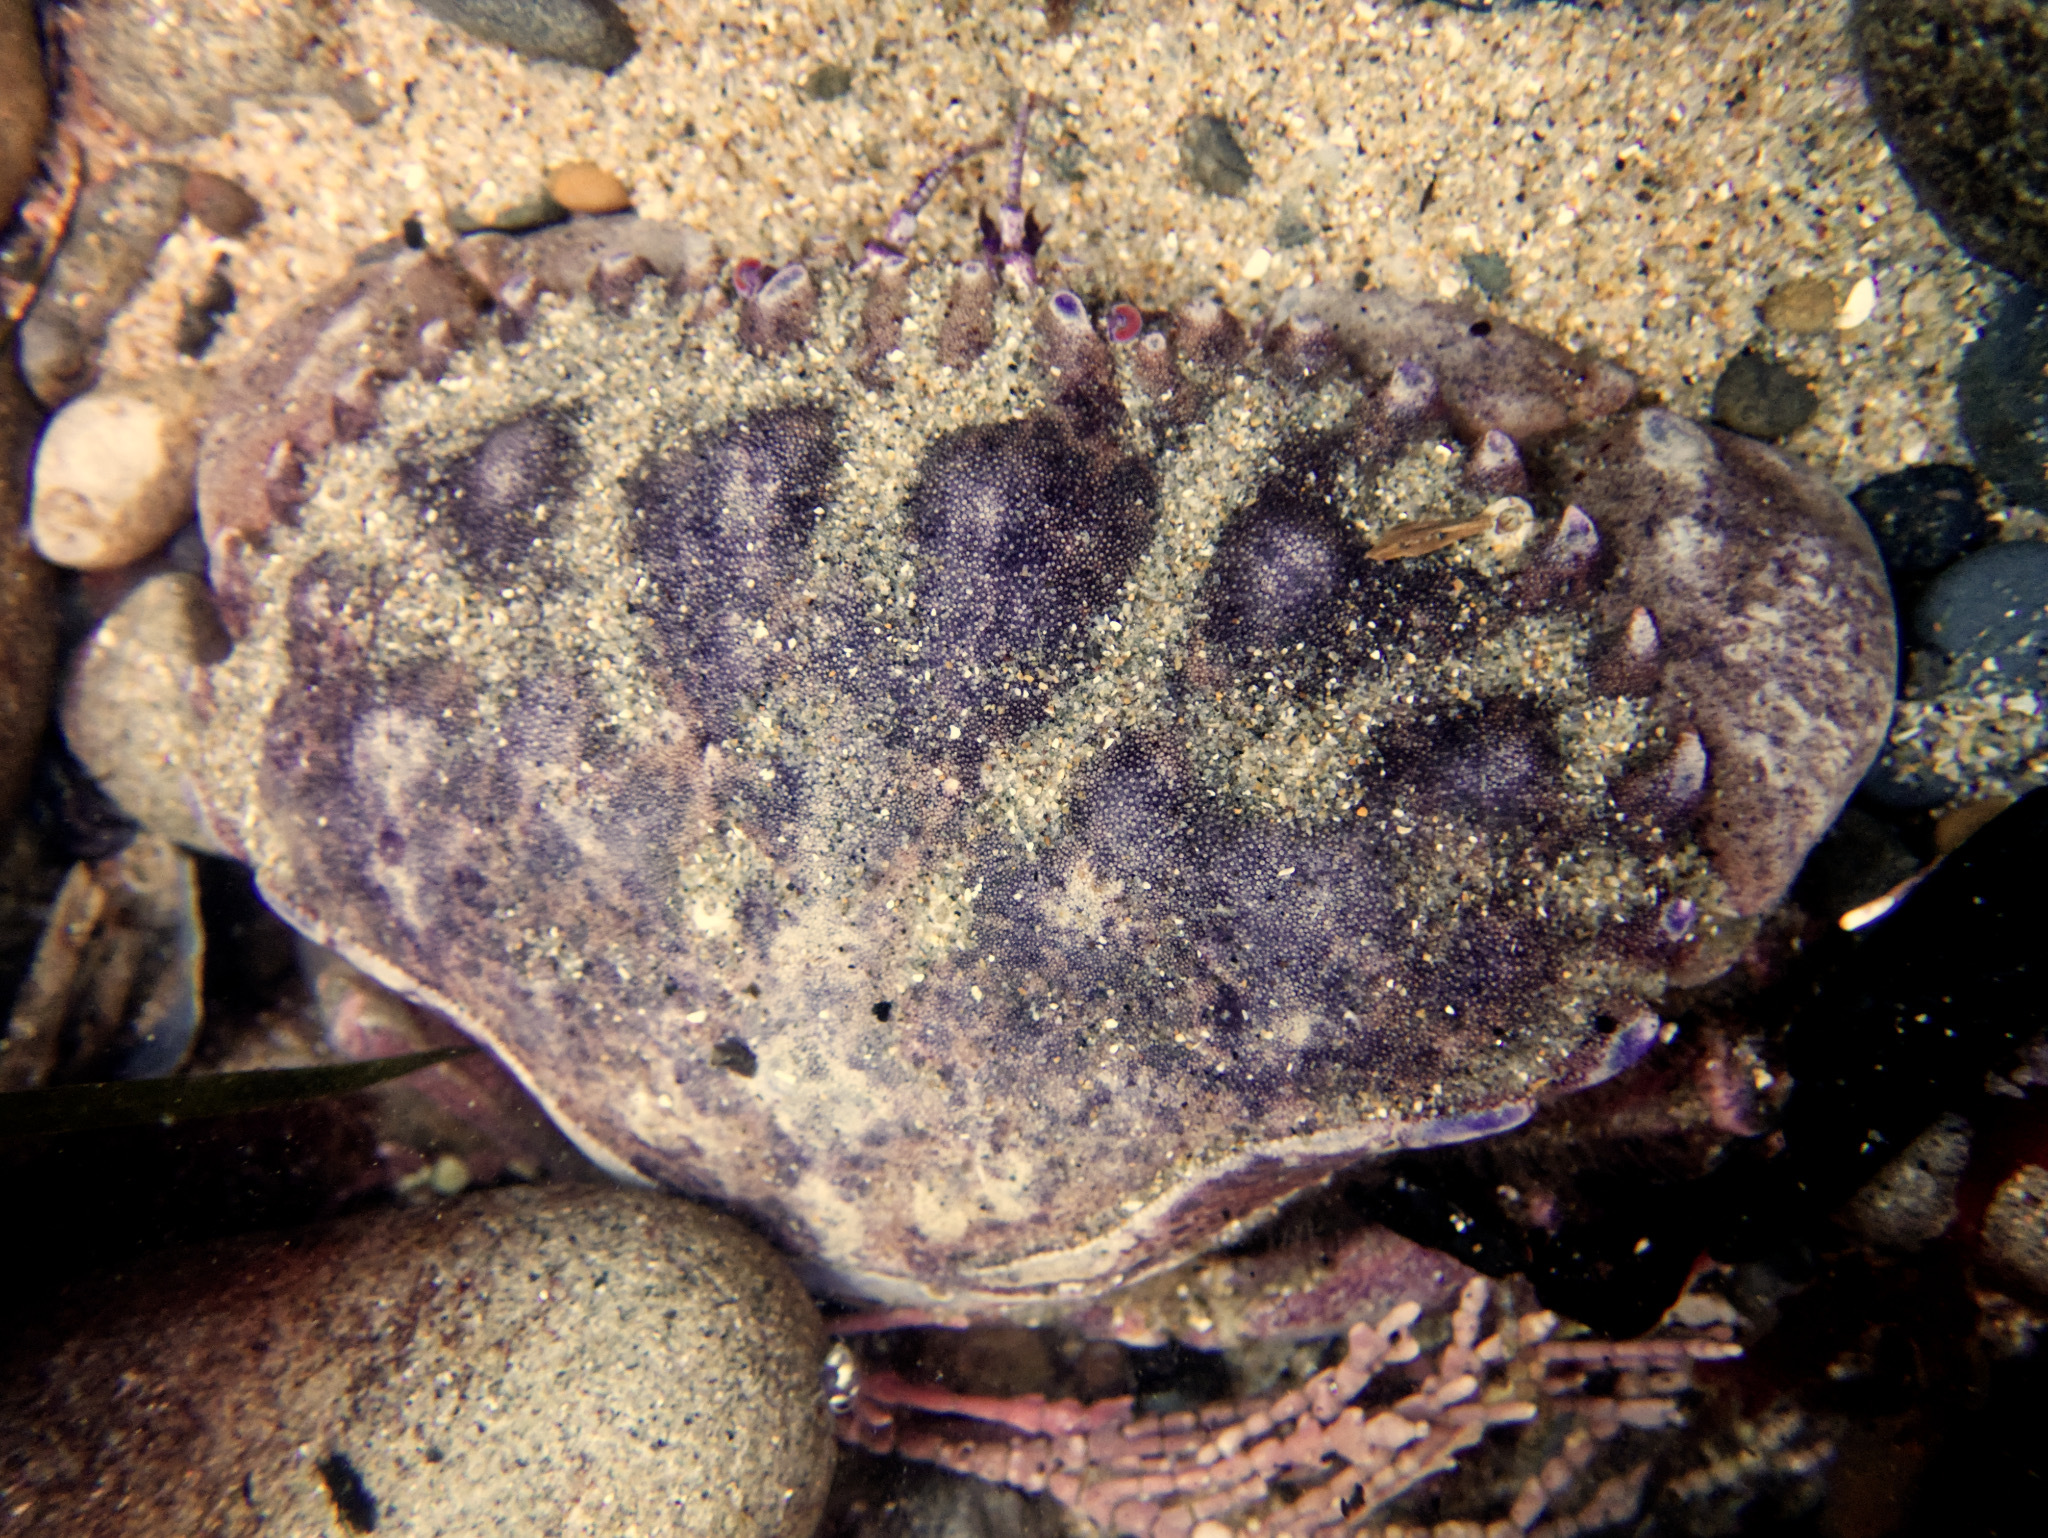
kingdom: Animalia
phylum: Arthropoda
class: Malacostraca
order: Decapoda
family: Cancridae
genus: Romaleon
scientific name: Romaleon antennarium
